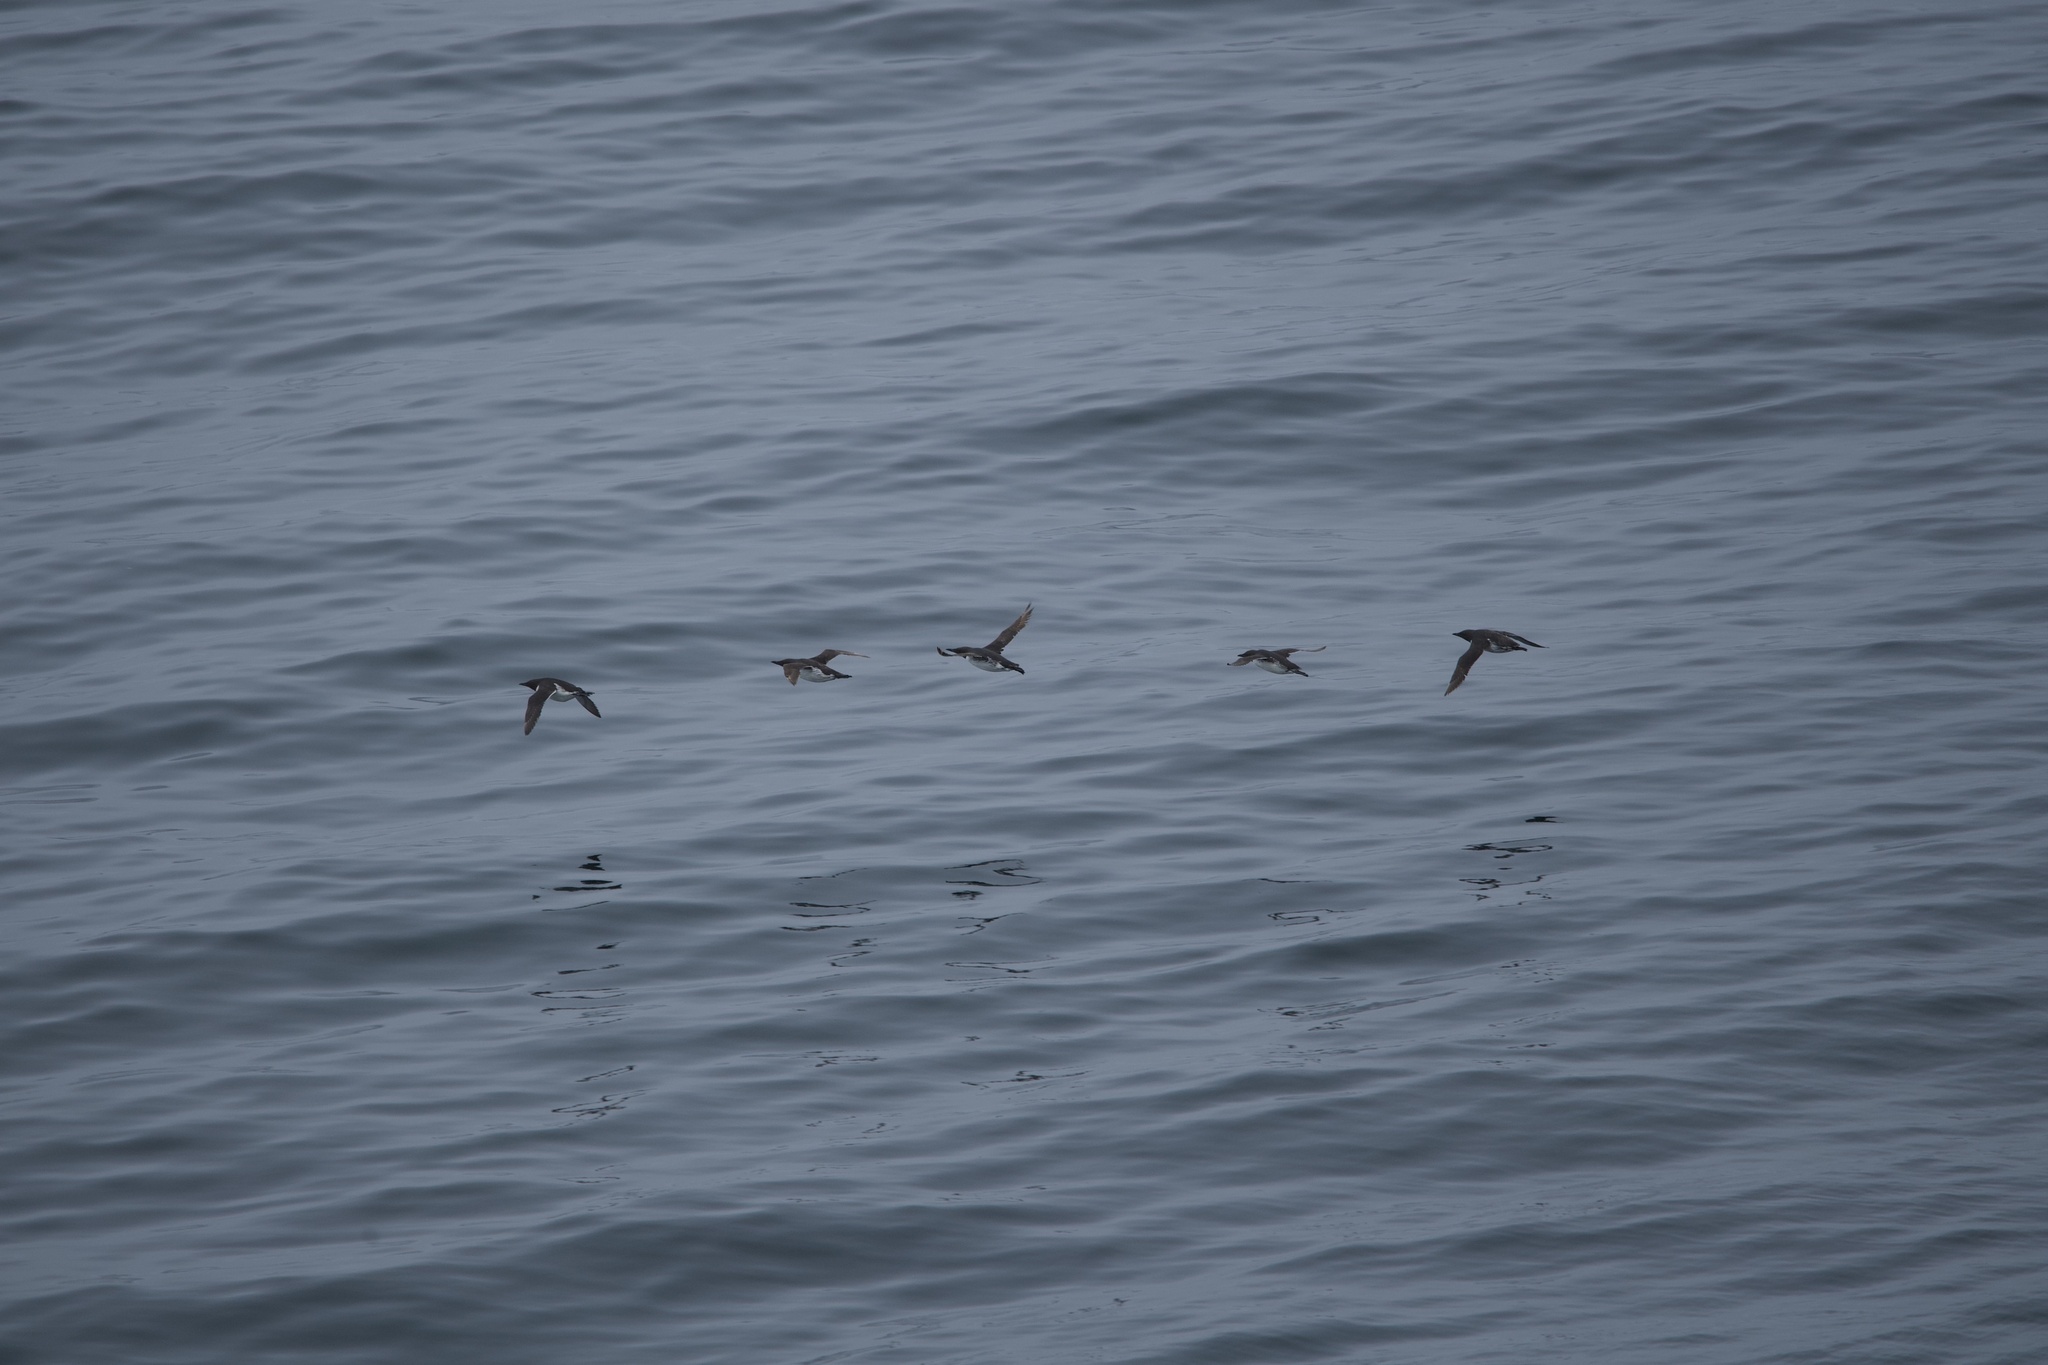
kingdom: Animalia
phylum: Chordata
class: Aves
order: Charadriiformes
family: Alcidae
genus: Uria
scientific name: Uria aalge
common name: Common murre
